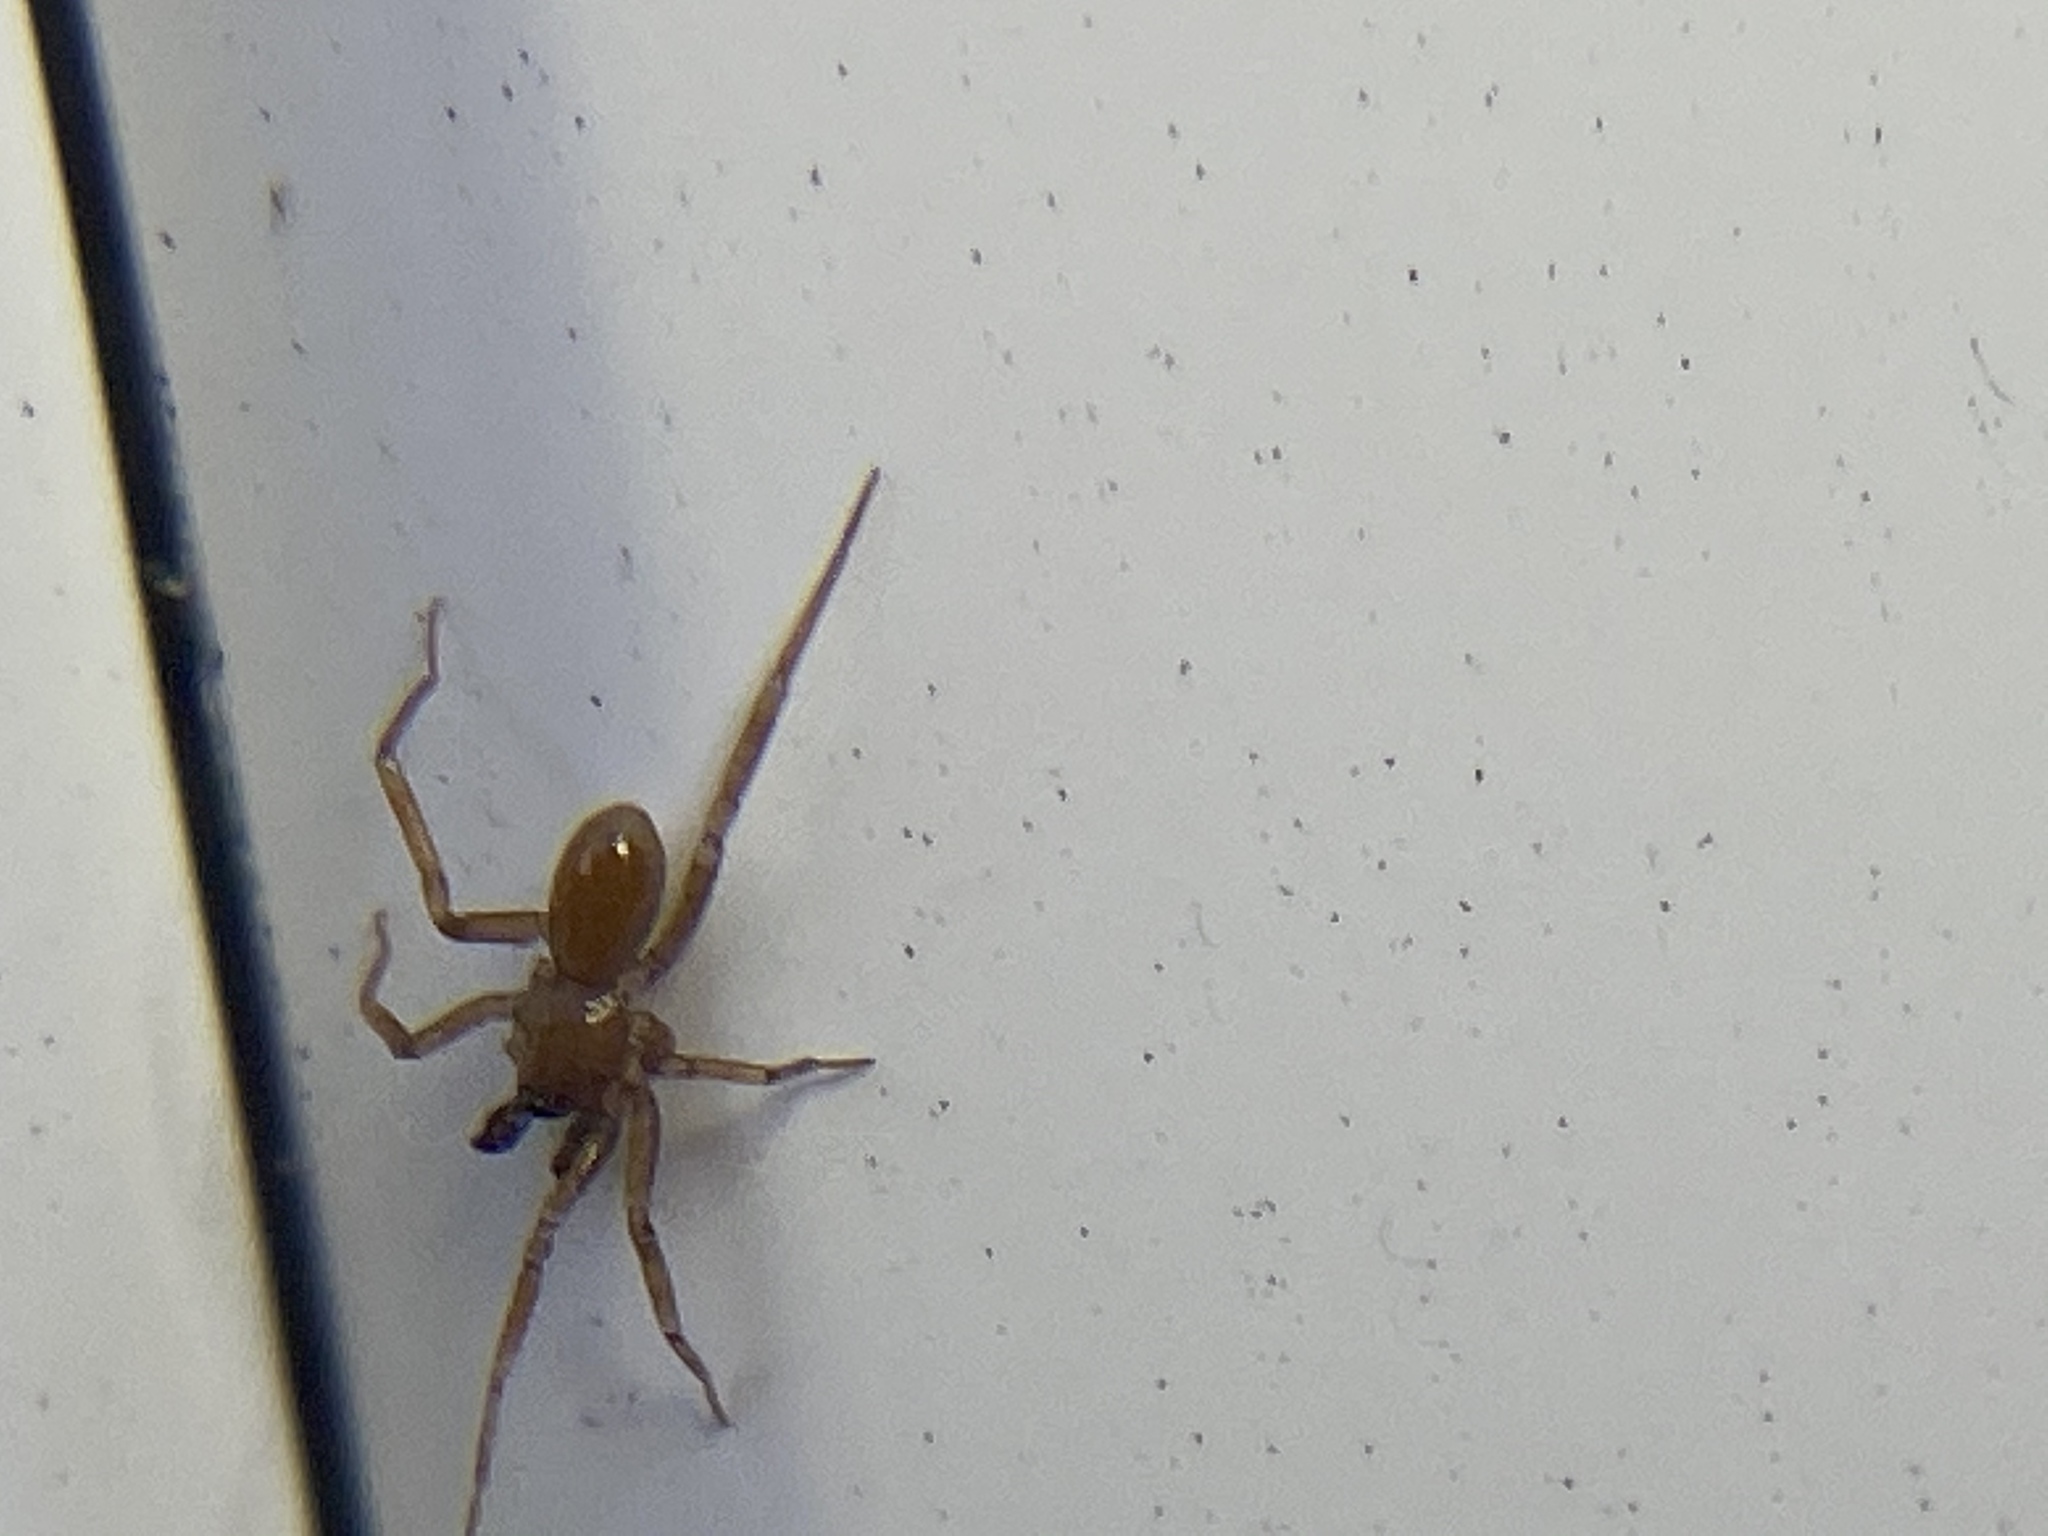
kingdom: Animalia
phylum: Arthropoda
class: Arachnida
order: Araneae
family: Cheiracanthiidae
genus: Cheiracanthium
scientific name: Cheiracanthium mildei
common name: Northern yellow sac spider
